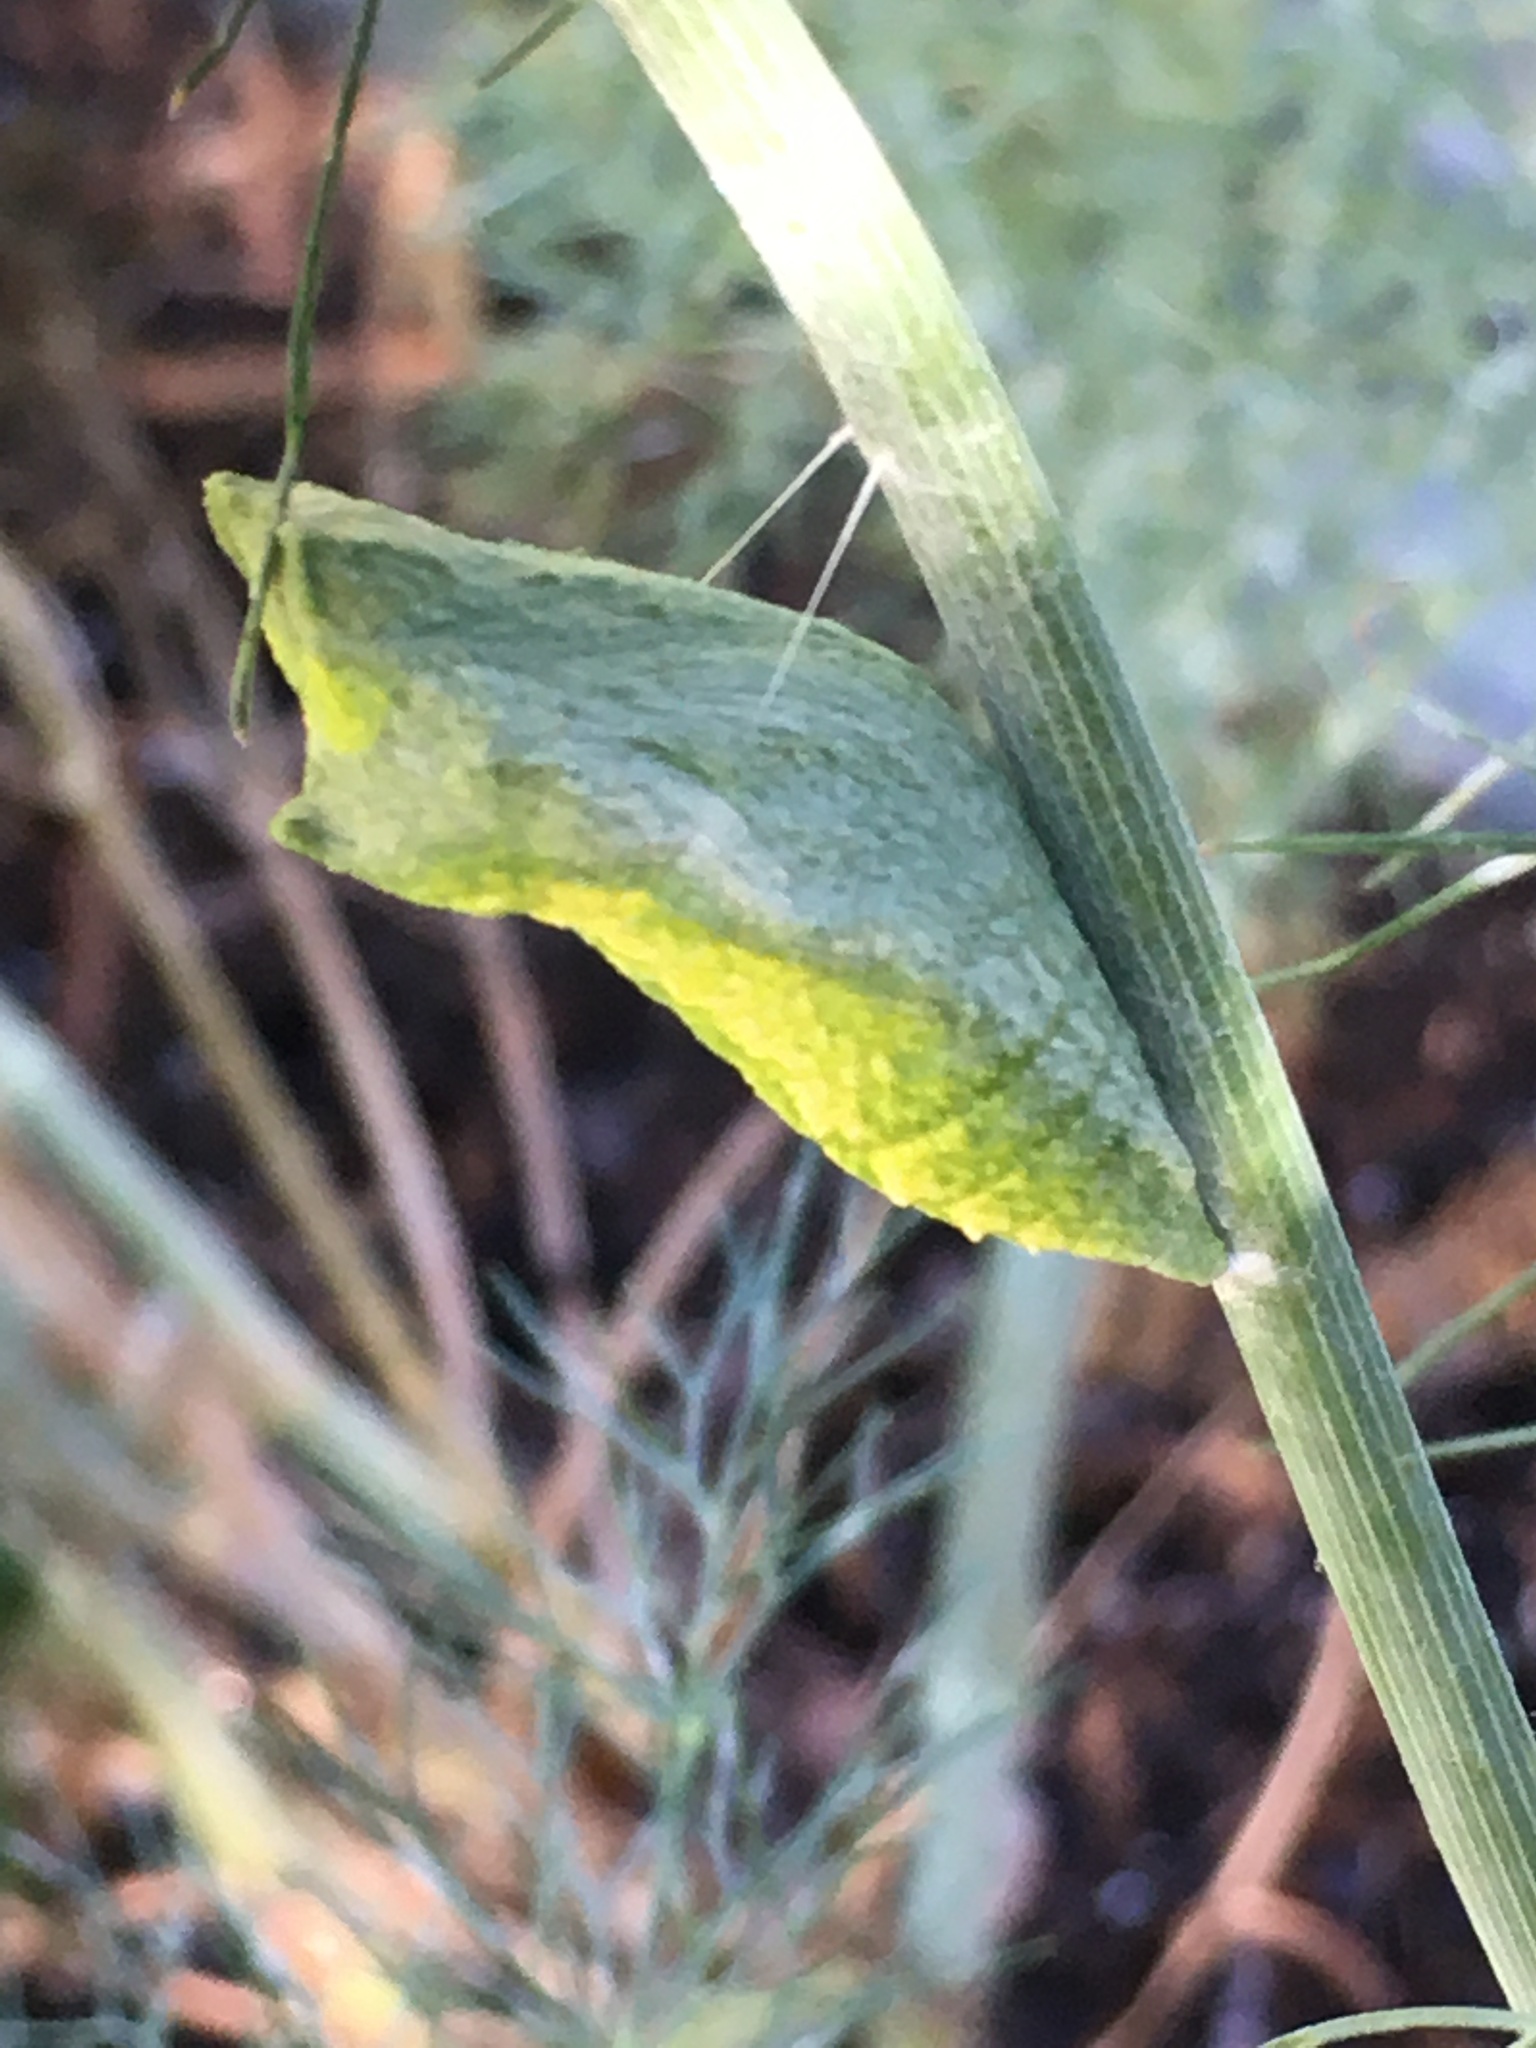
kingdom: Animalia
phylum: Arthropoda
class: Insecta
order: Lepidoptera
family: Papilionidae
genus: Papilio
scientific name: Papilio polyxenes
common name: Black swallowtail
